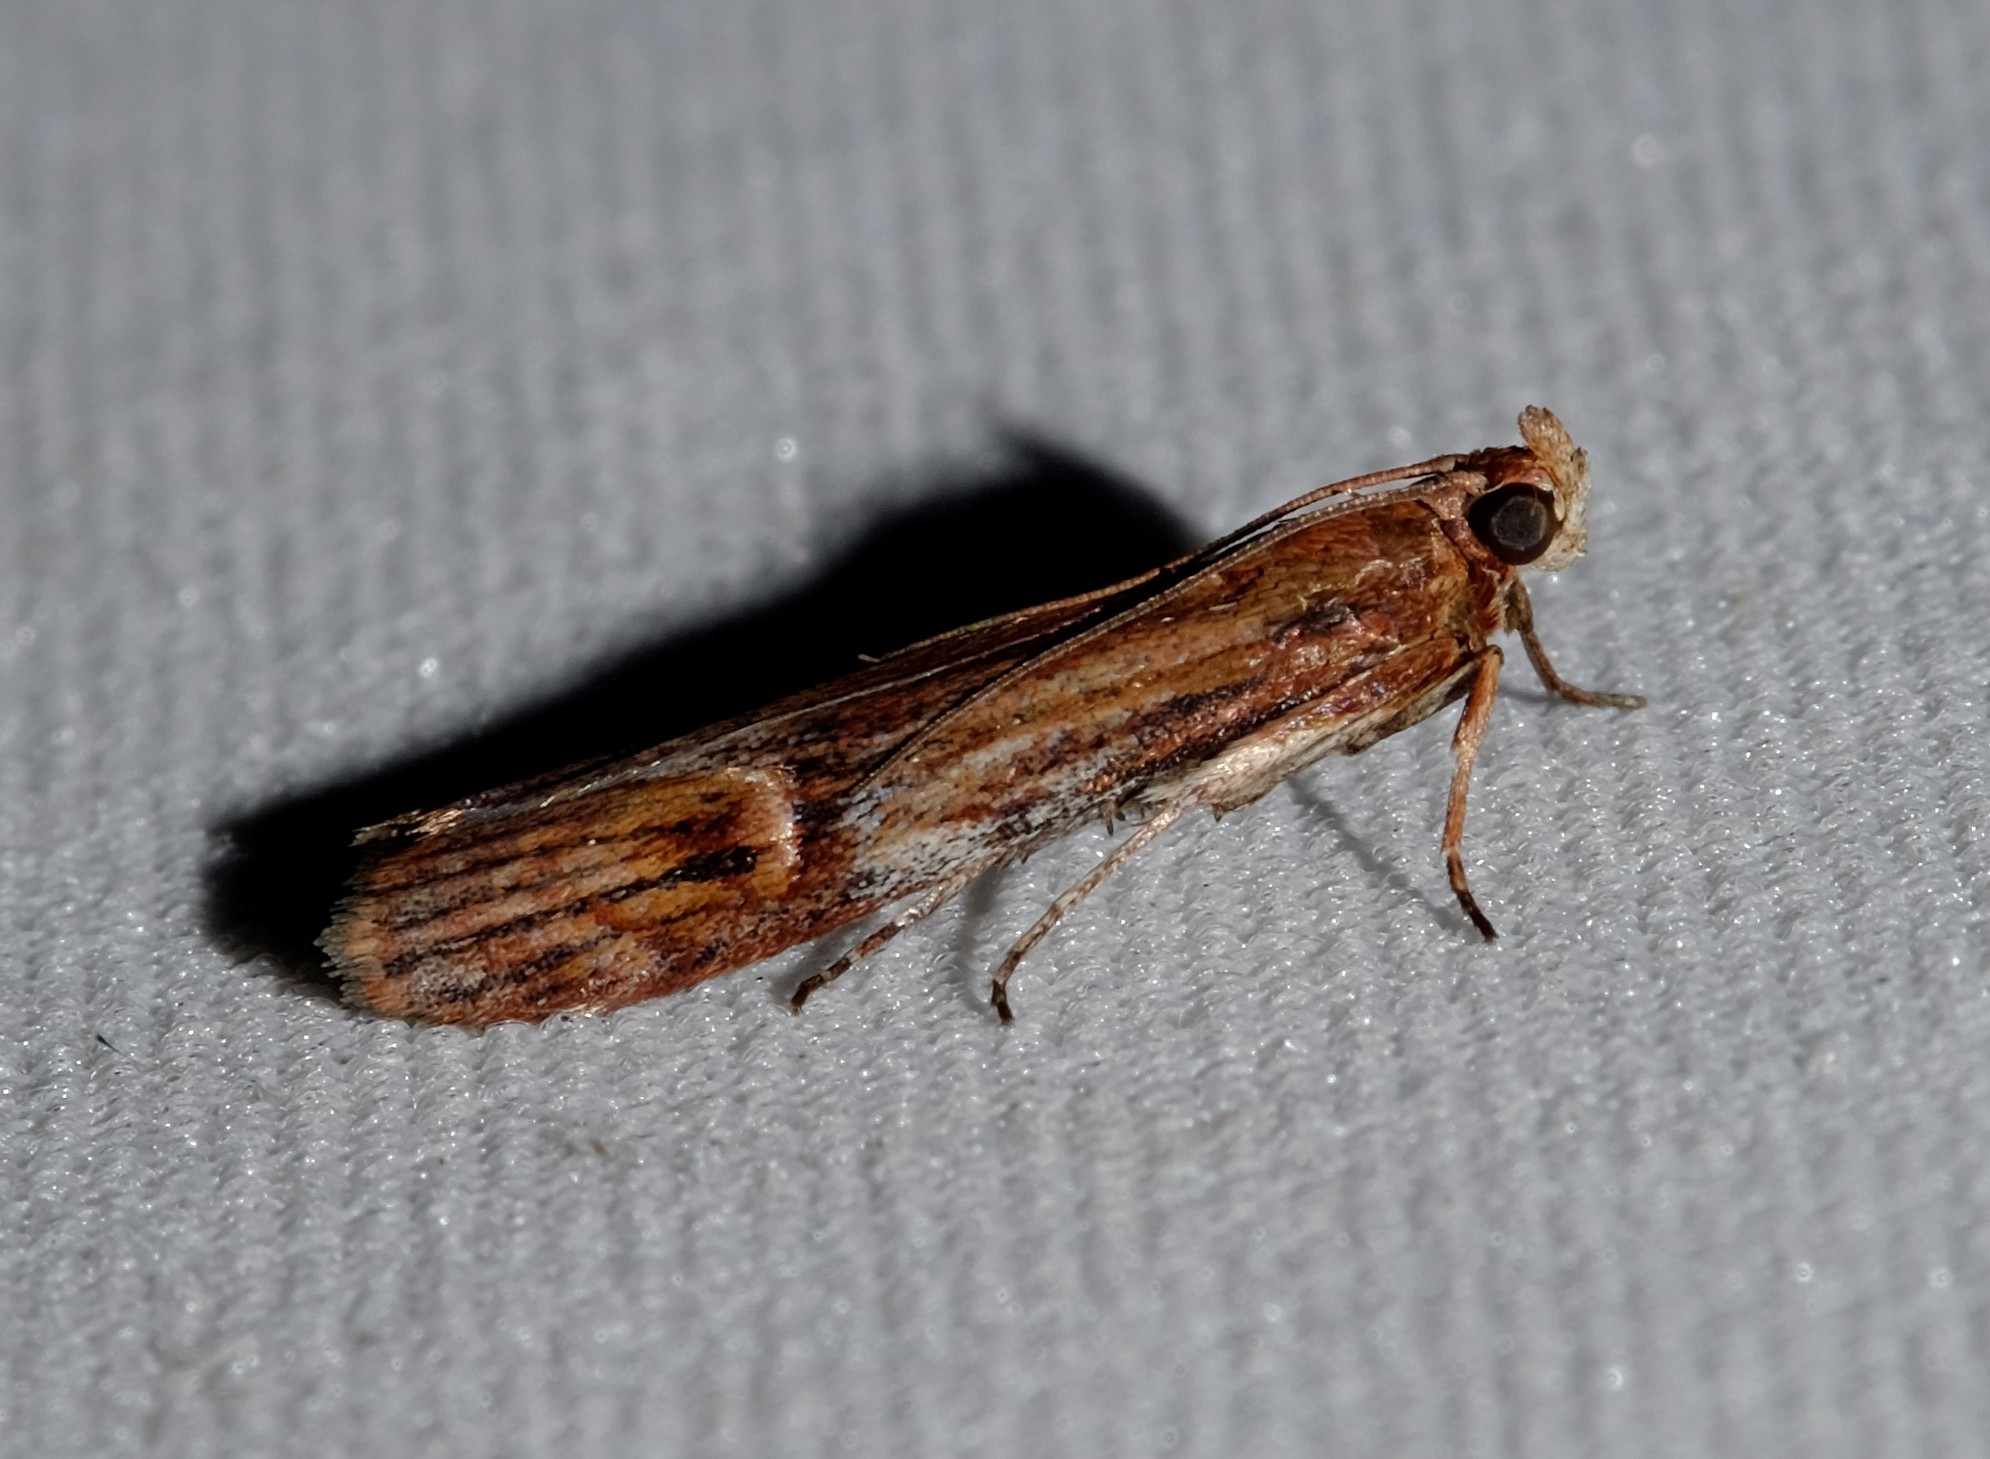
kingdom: Animalia
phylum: Arthropoda
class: Insecta
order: Lepidoptera
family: Pyralidae
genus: Balanomis
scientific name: Balanomis encyclia
